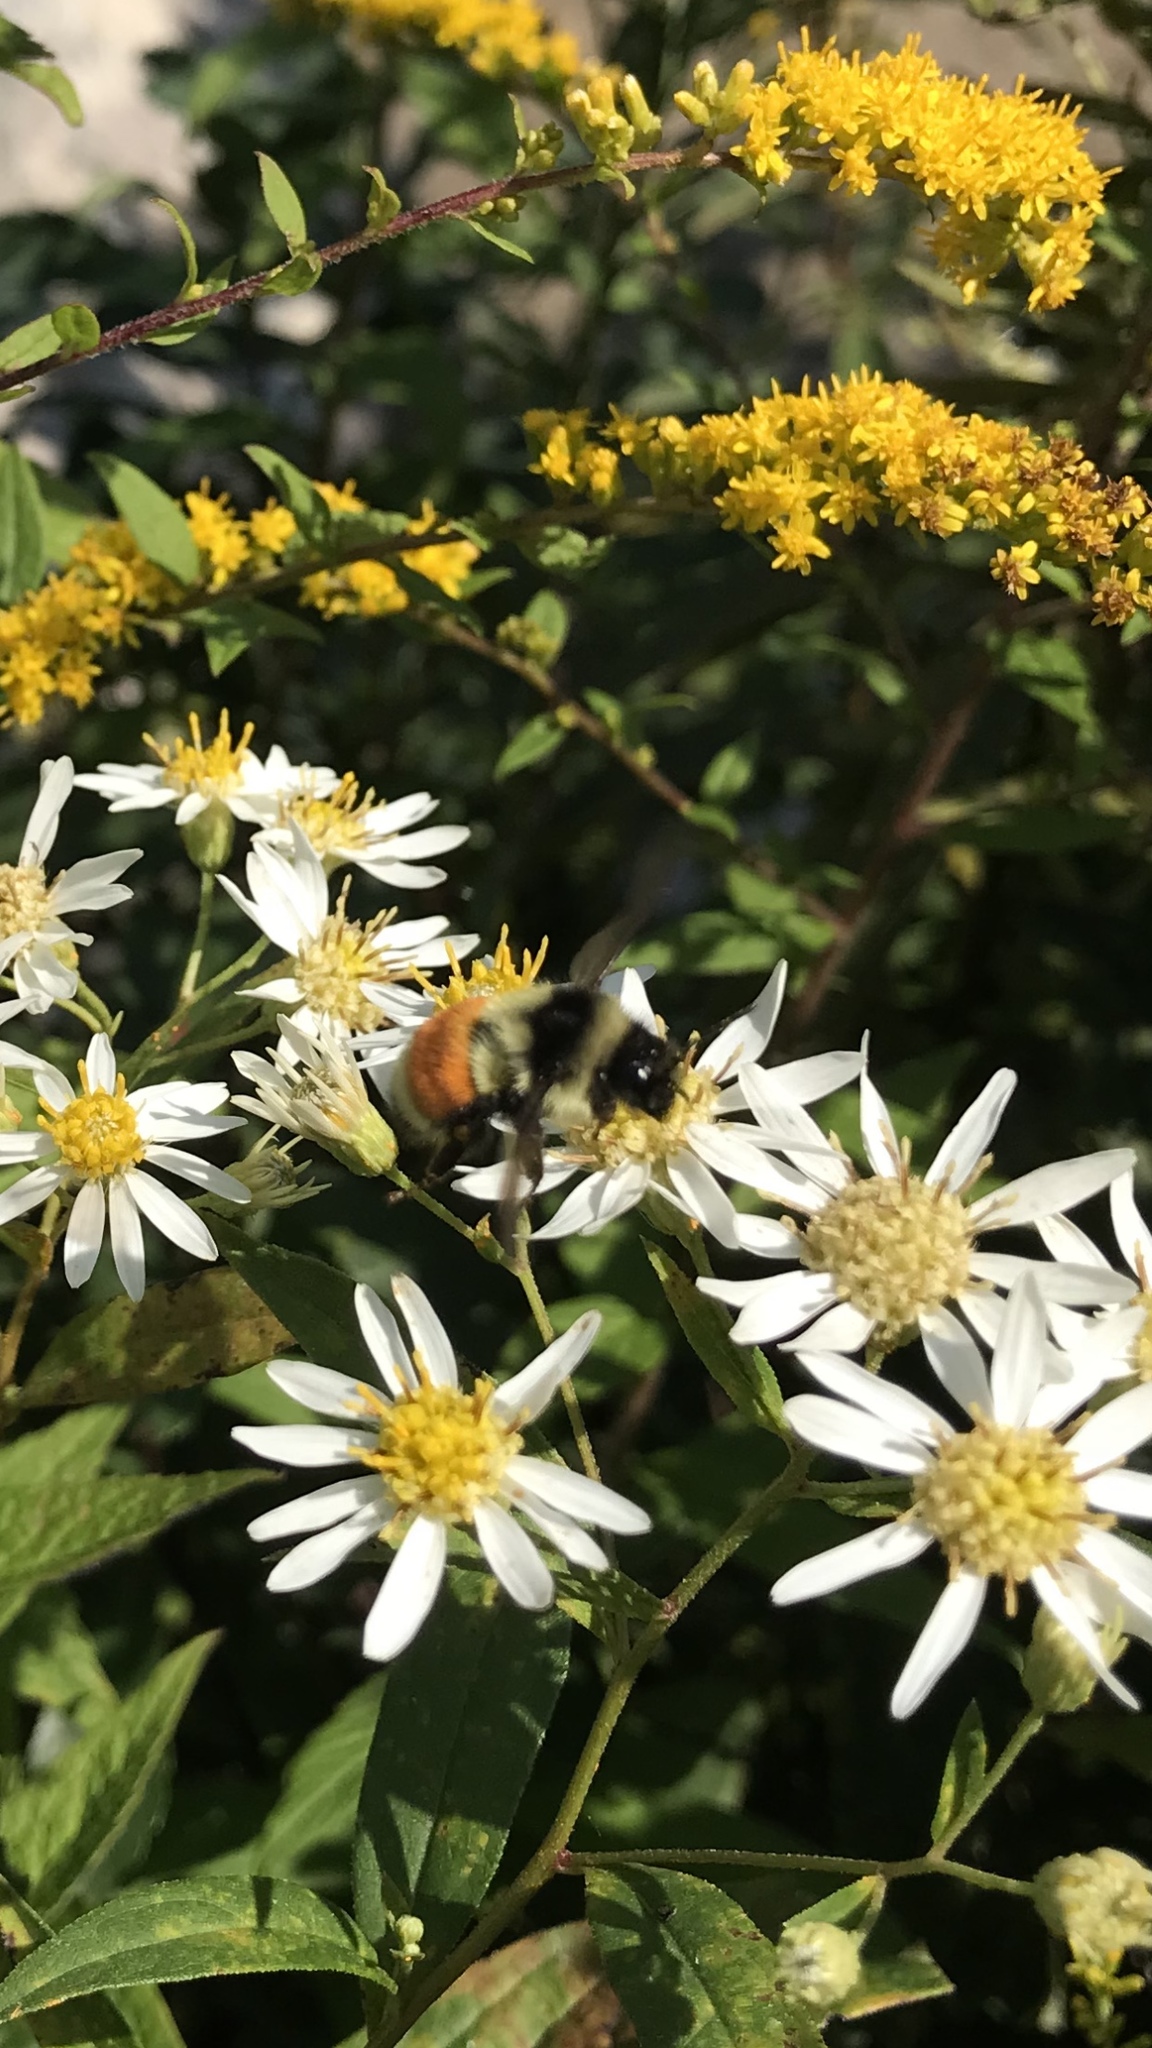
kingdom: Animalia
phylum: Arthropoda
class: Insecta
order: Hymenoptera
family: Apidae
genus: Bombus
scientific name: Bombus ternarius
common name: Tri-colored bumble bee
